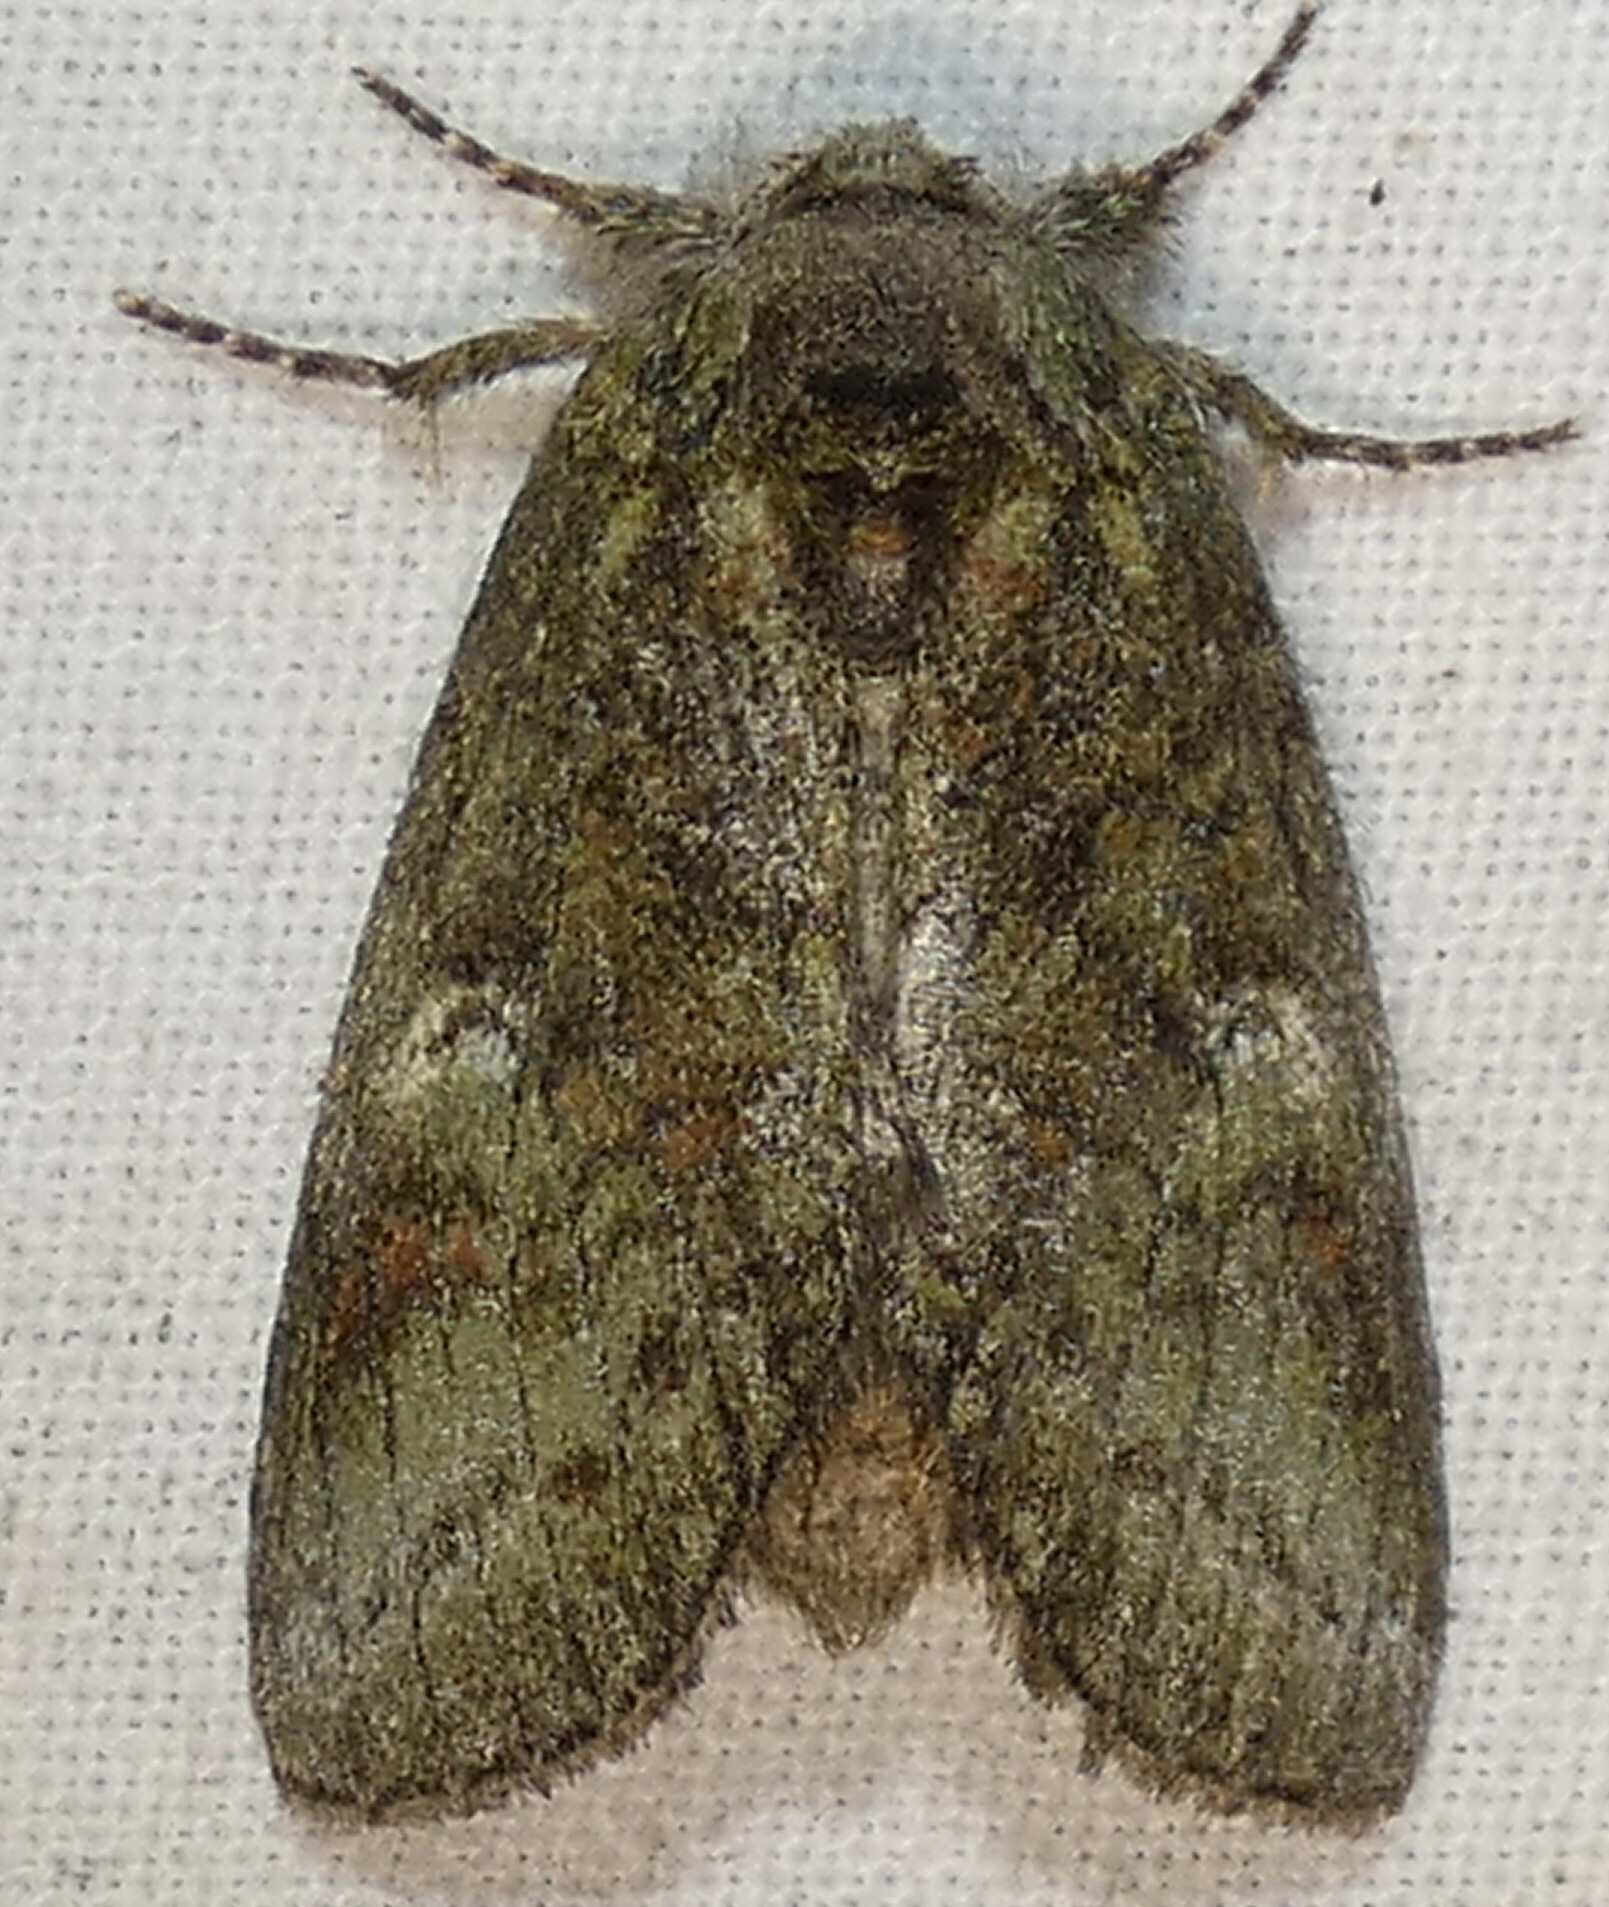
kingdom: Animalia
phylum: Arthropoda
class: Insecta
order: Lepidoptera
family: Notodontidae
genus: Disphragis
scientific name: Disphragis Cecrita guttivitta
